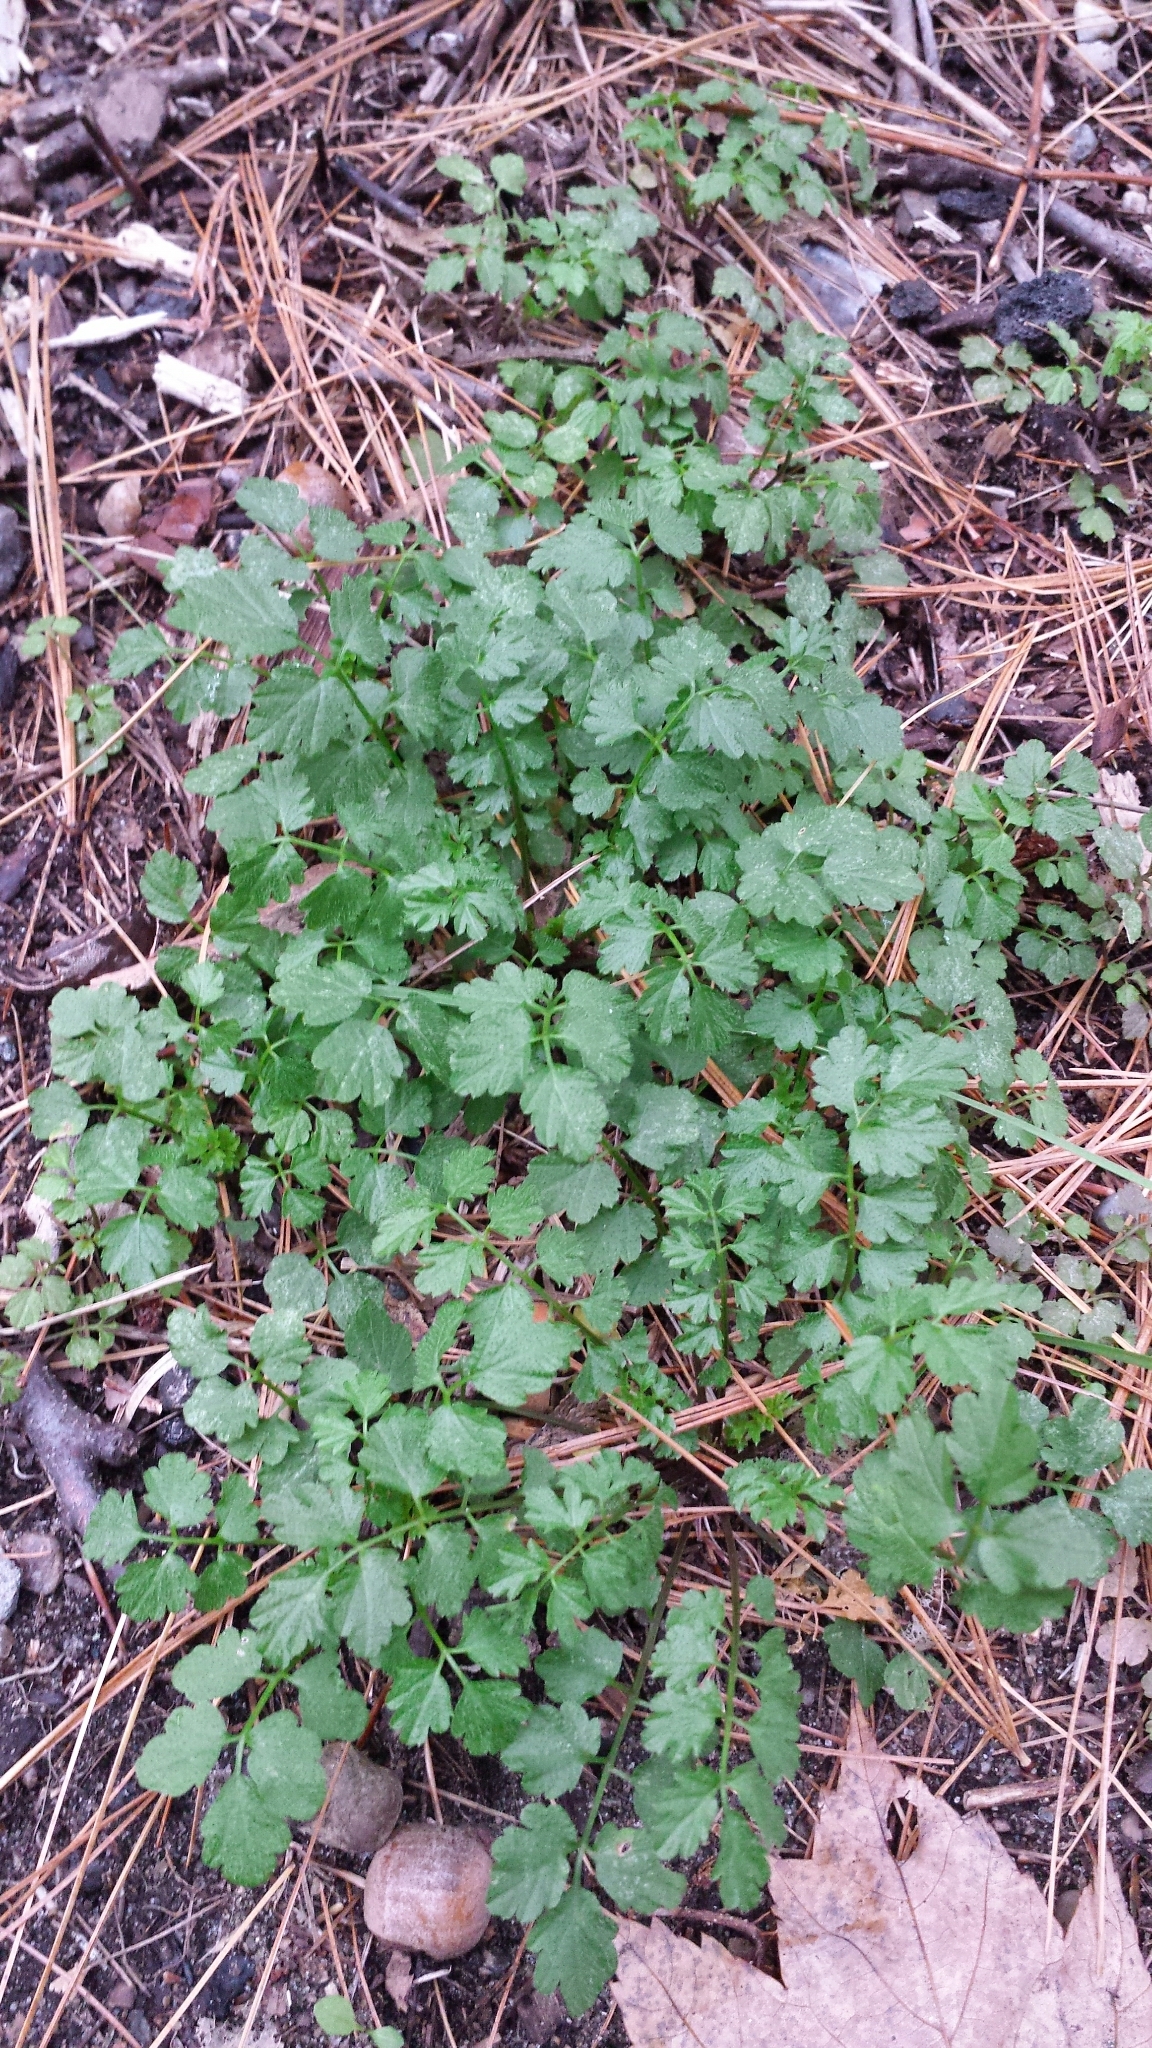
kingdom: Plantae
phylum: Tracheophyta
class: Magnoliopsida
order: Brassicales
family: Brassicaceae
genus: Cardamine
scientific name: Cardamine impatiens
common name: Narrow-leaved bitter-cress
